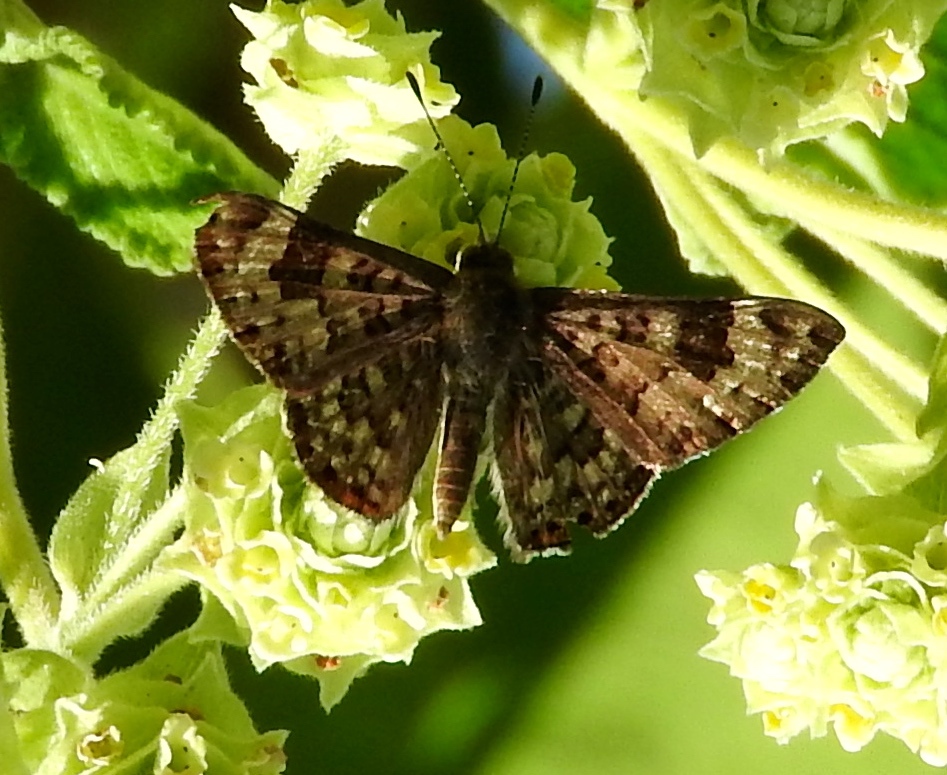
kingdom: Animalia
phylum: Arthropoda
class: Insecta
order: Lepidoptera
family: Riodinidae
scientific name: Riodinidae
